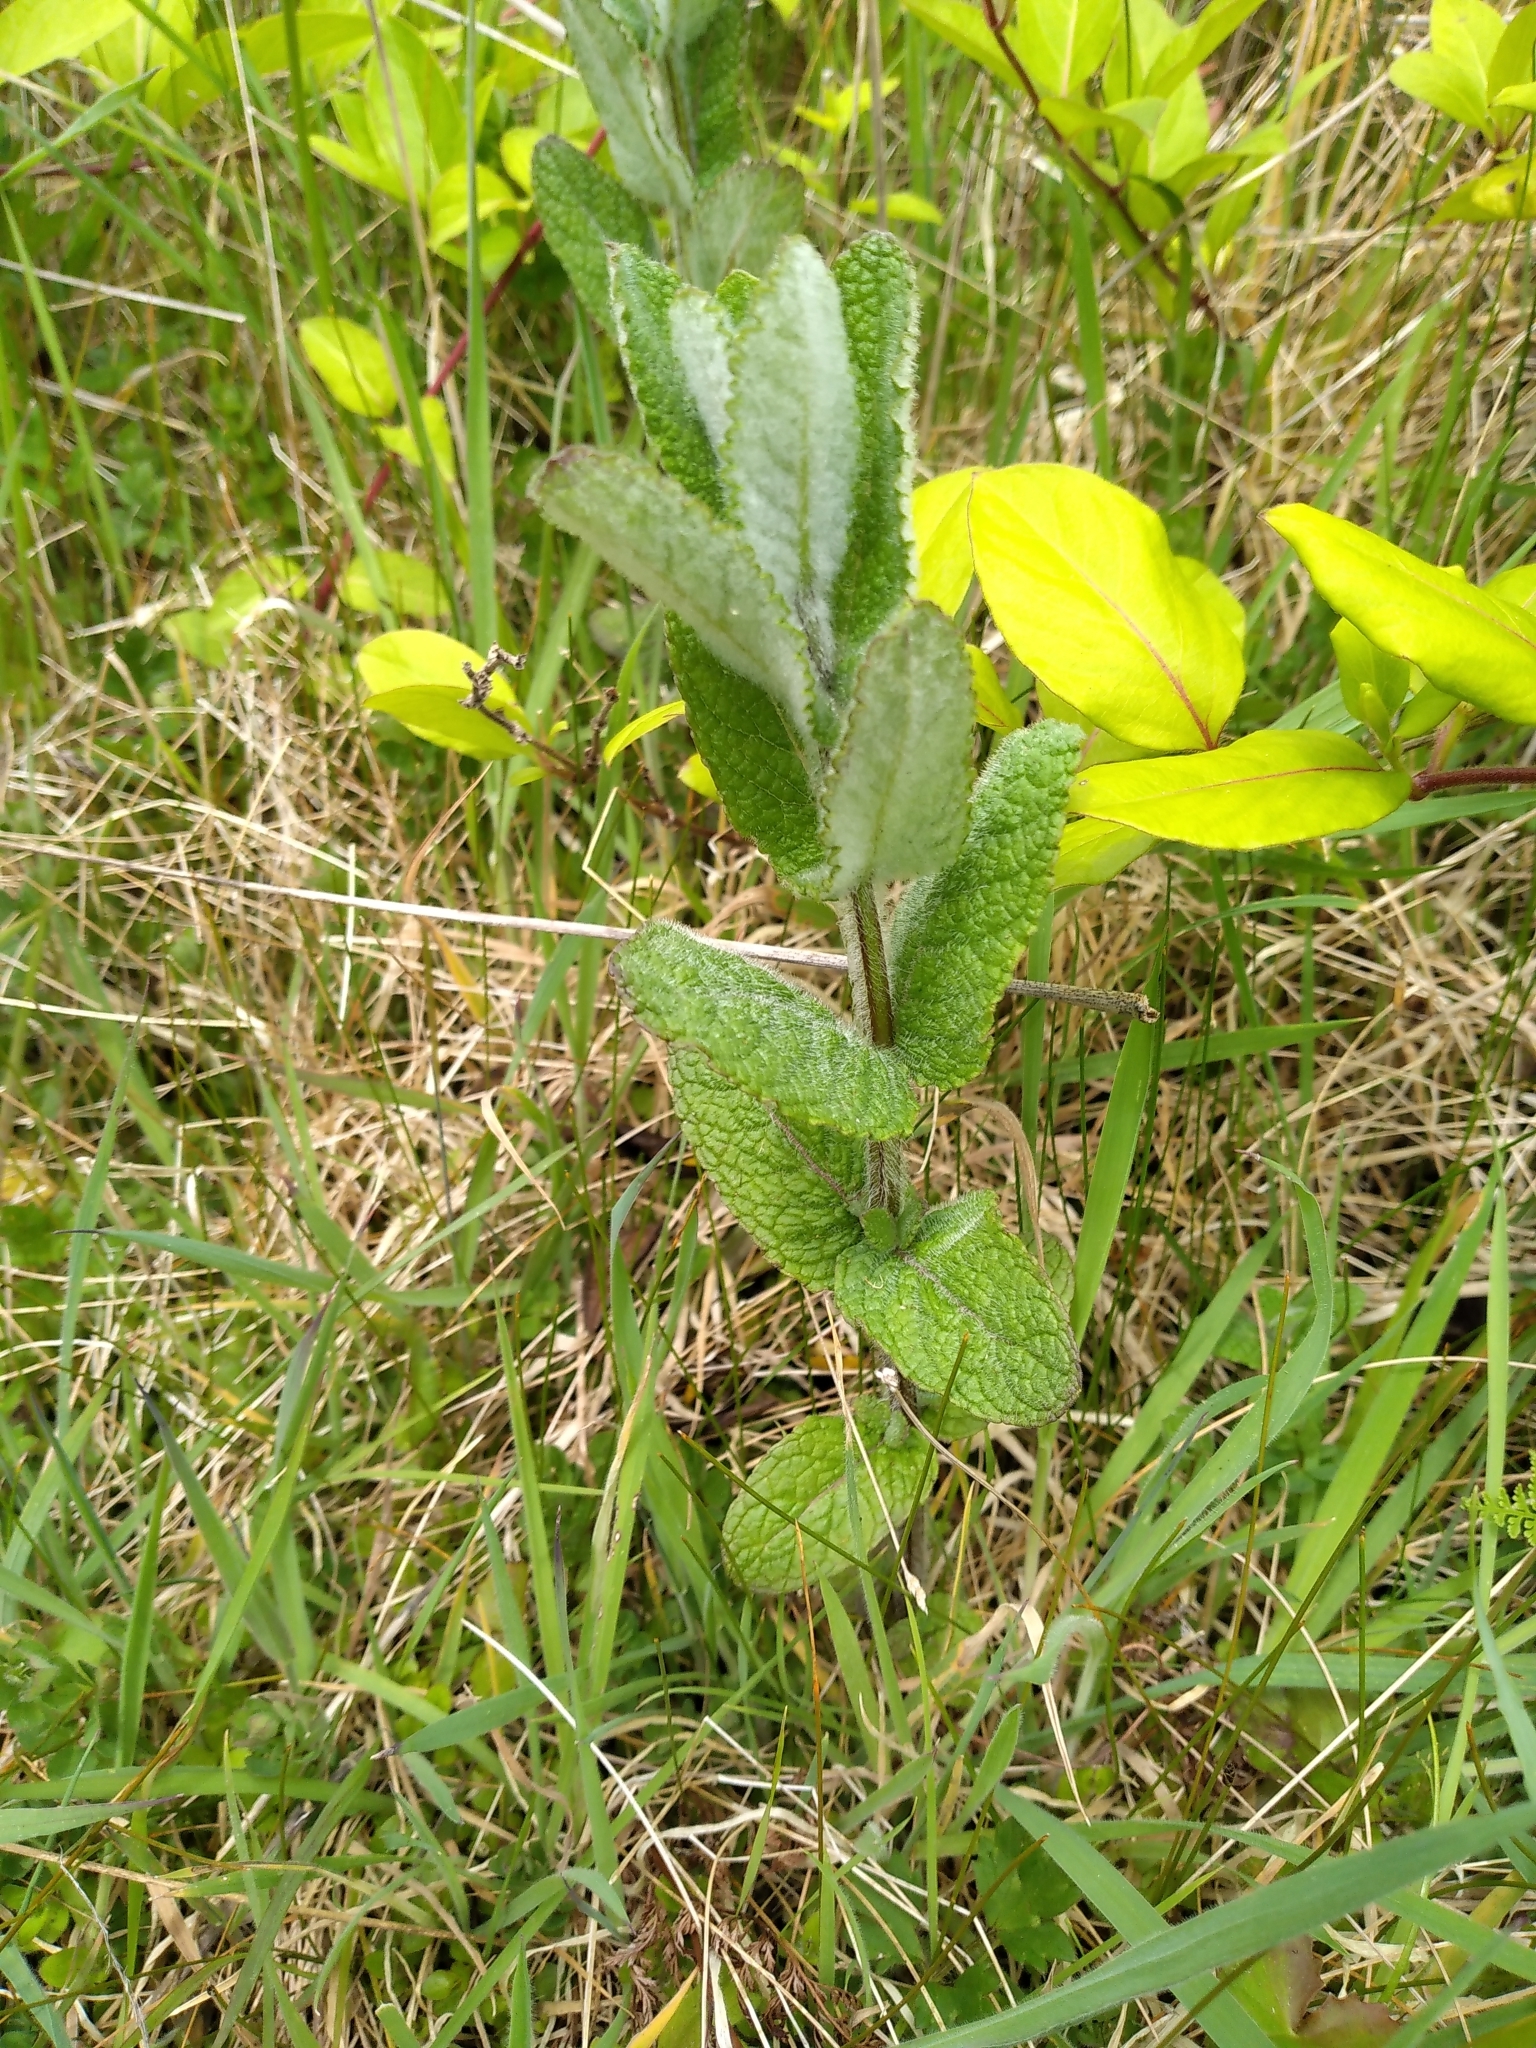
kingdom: Plantae
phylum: Tracheophyta
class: Magnoliopsida
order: Lamiales
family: Lamiaceae
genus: Mentha
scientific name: Mentha suaveolens
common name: Apple mint
